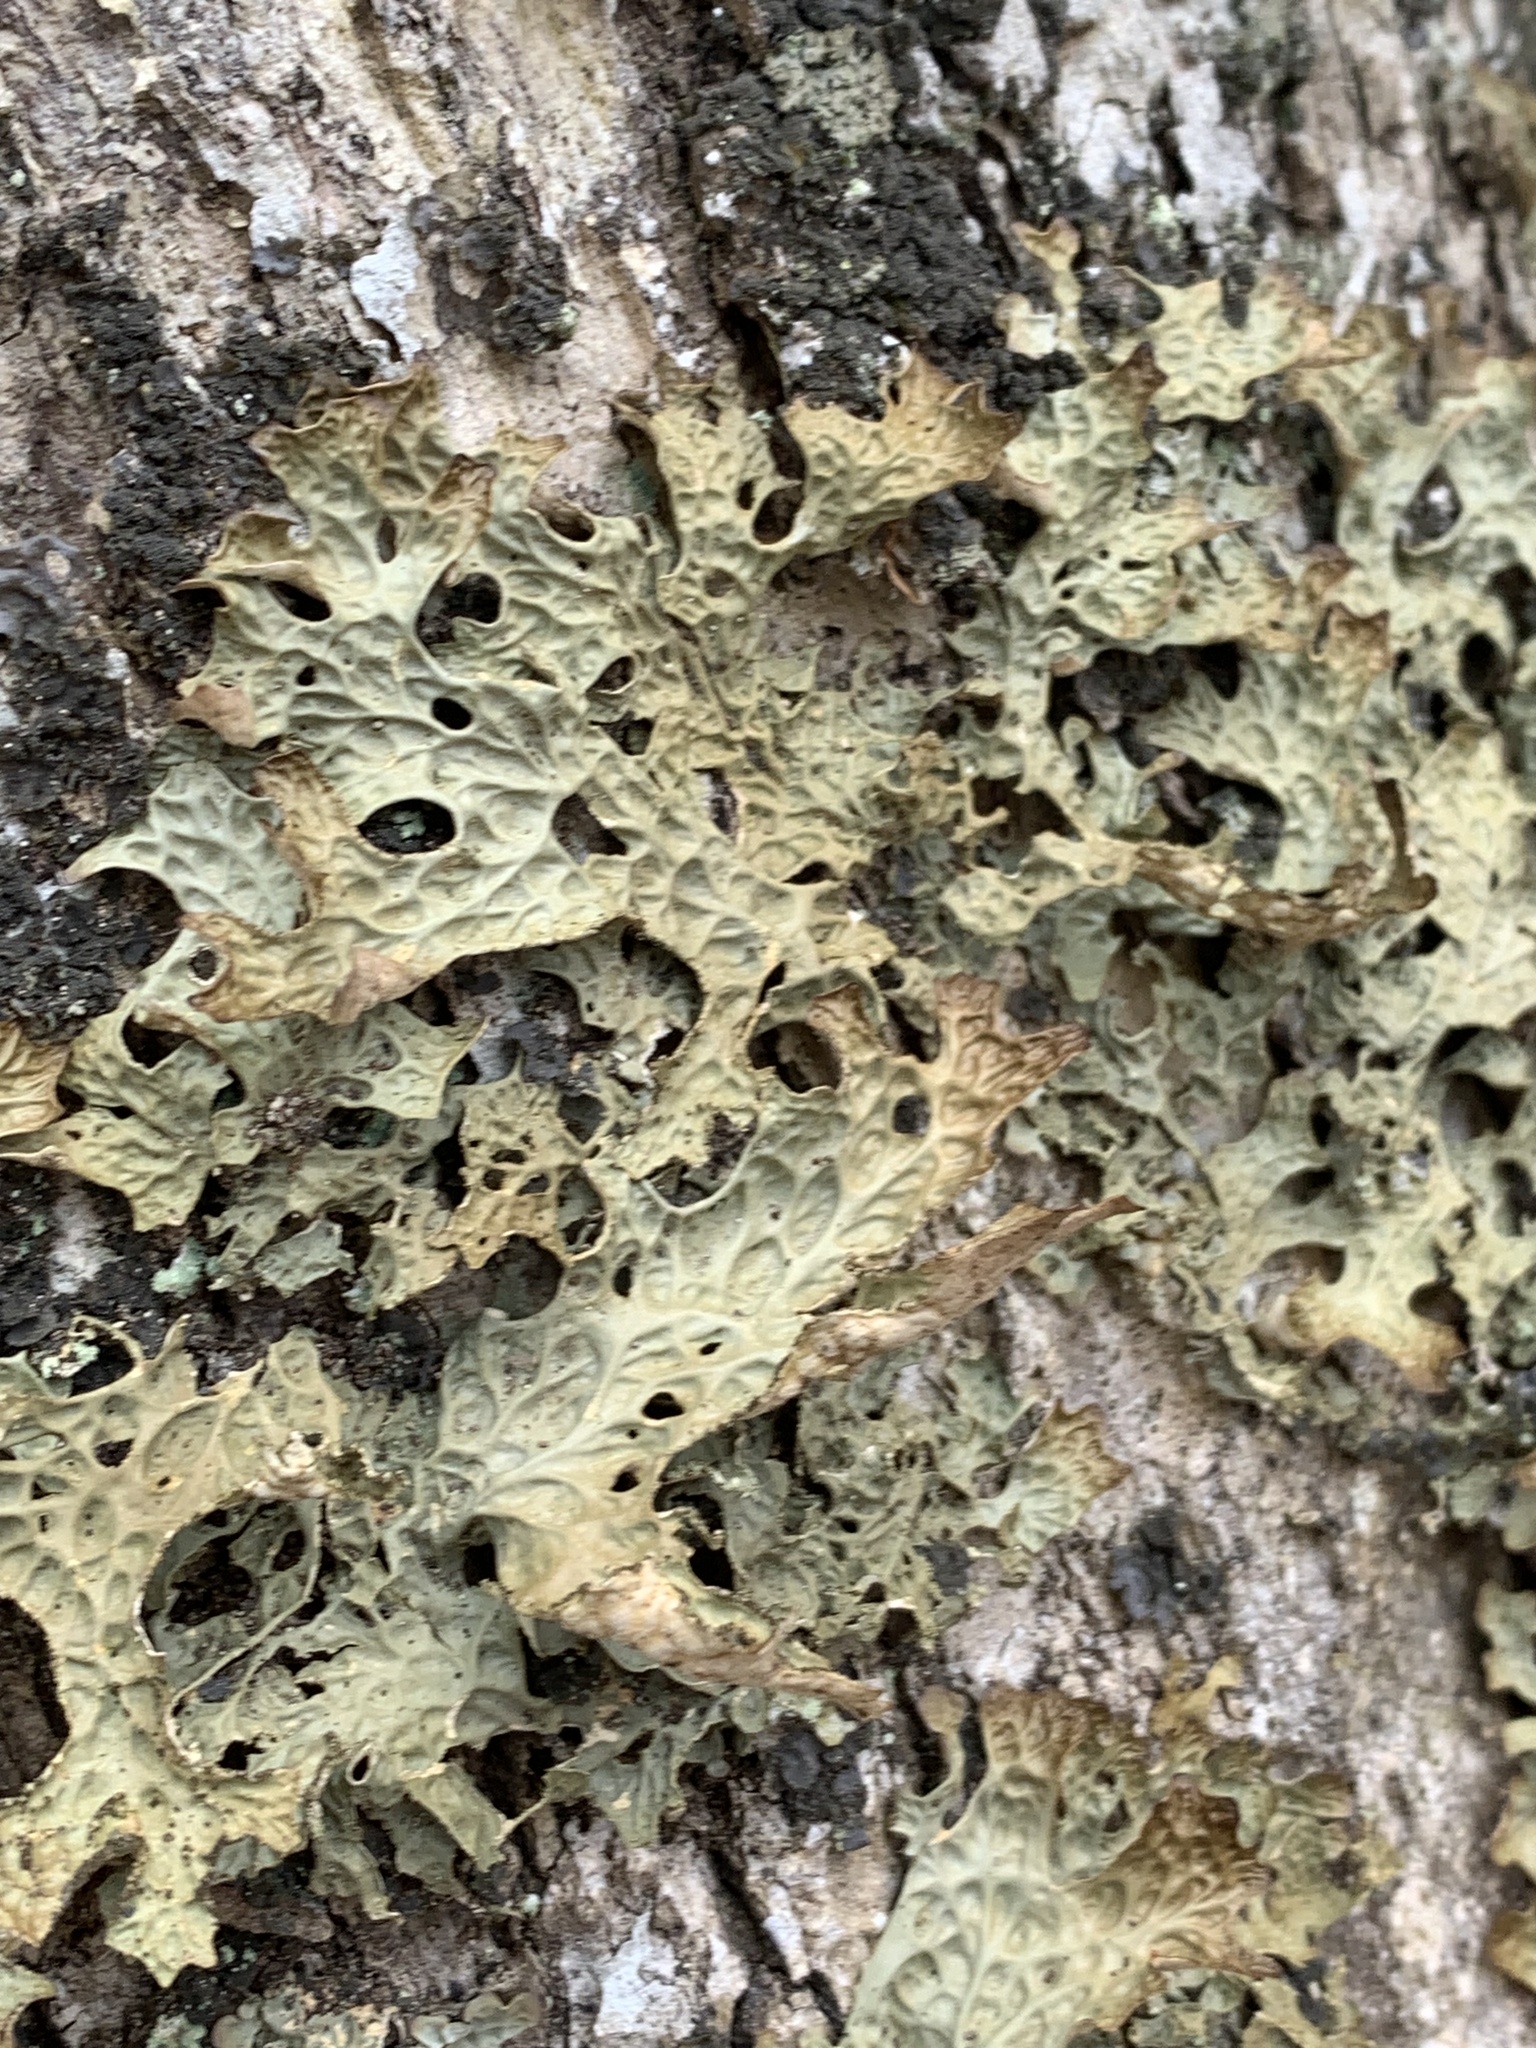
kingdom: Fungi
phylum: Ascomycota
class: Lecanoromycetes
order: Peltigerales
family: Lobariaceae
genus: Lobaria
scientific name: Lobaria pulmonaria
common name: Lungwort
